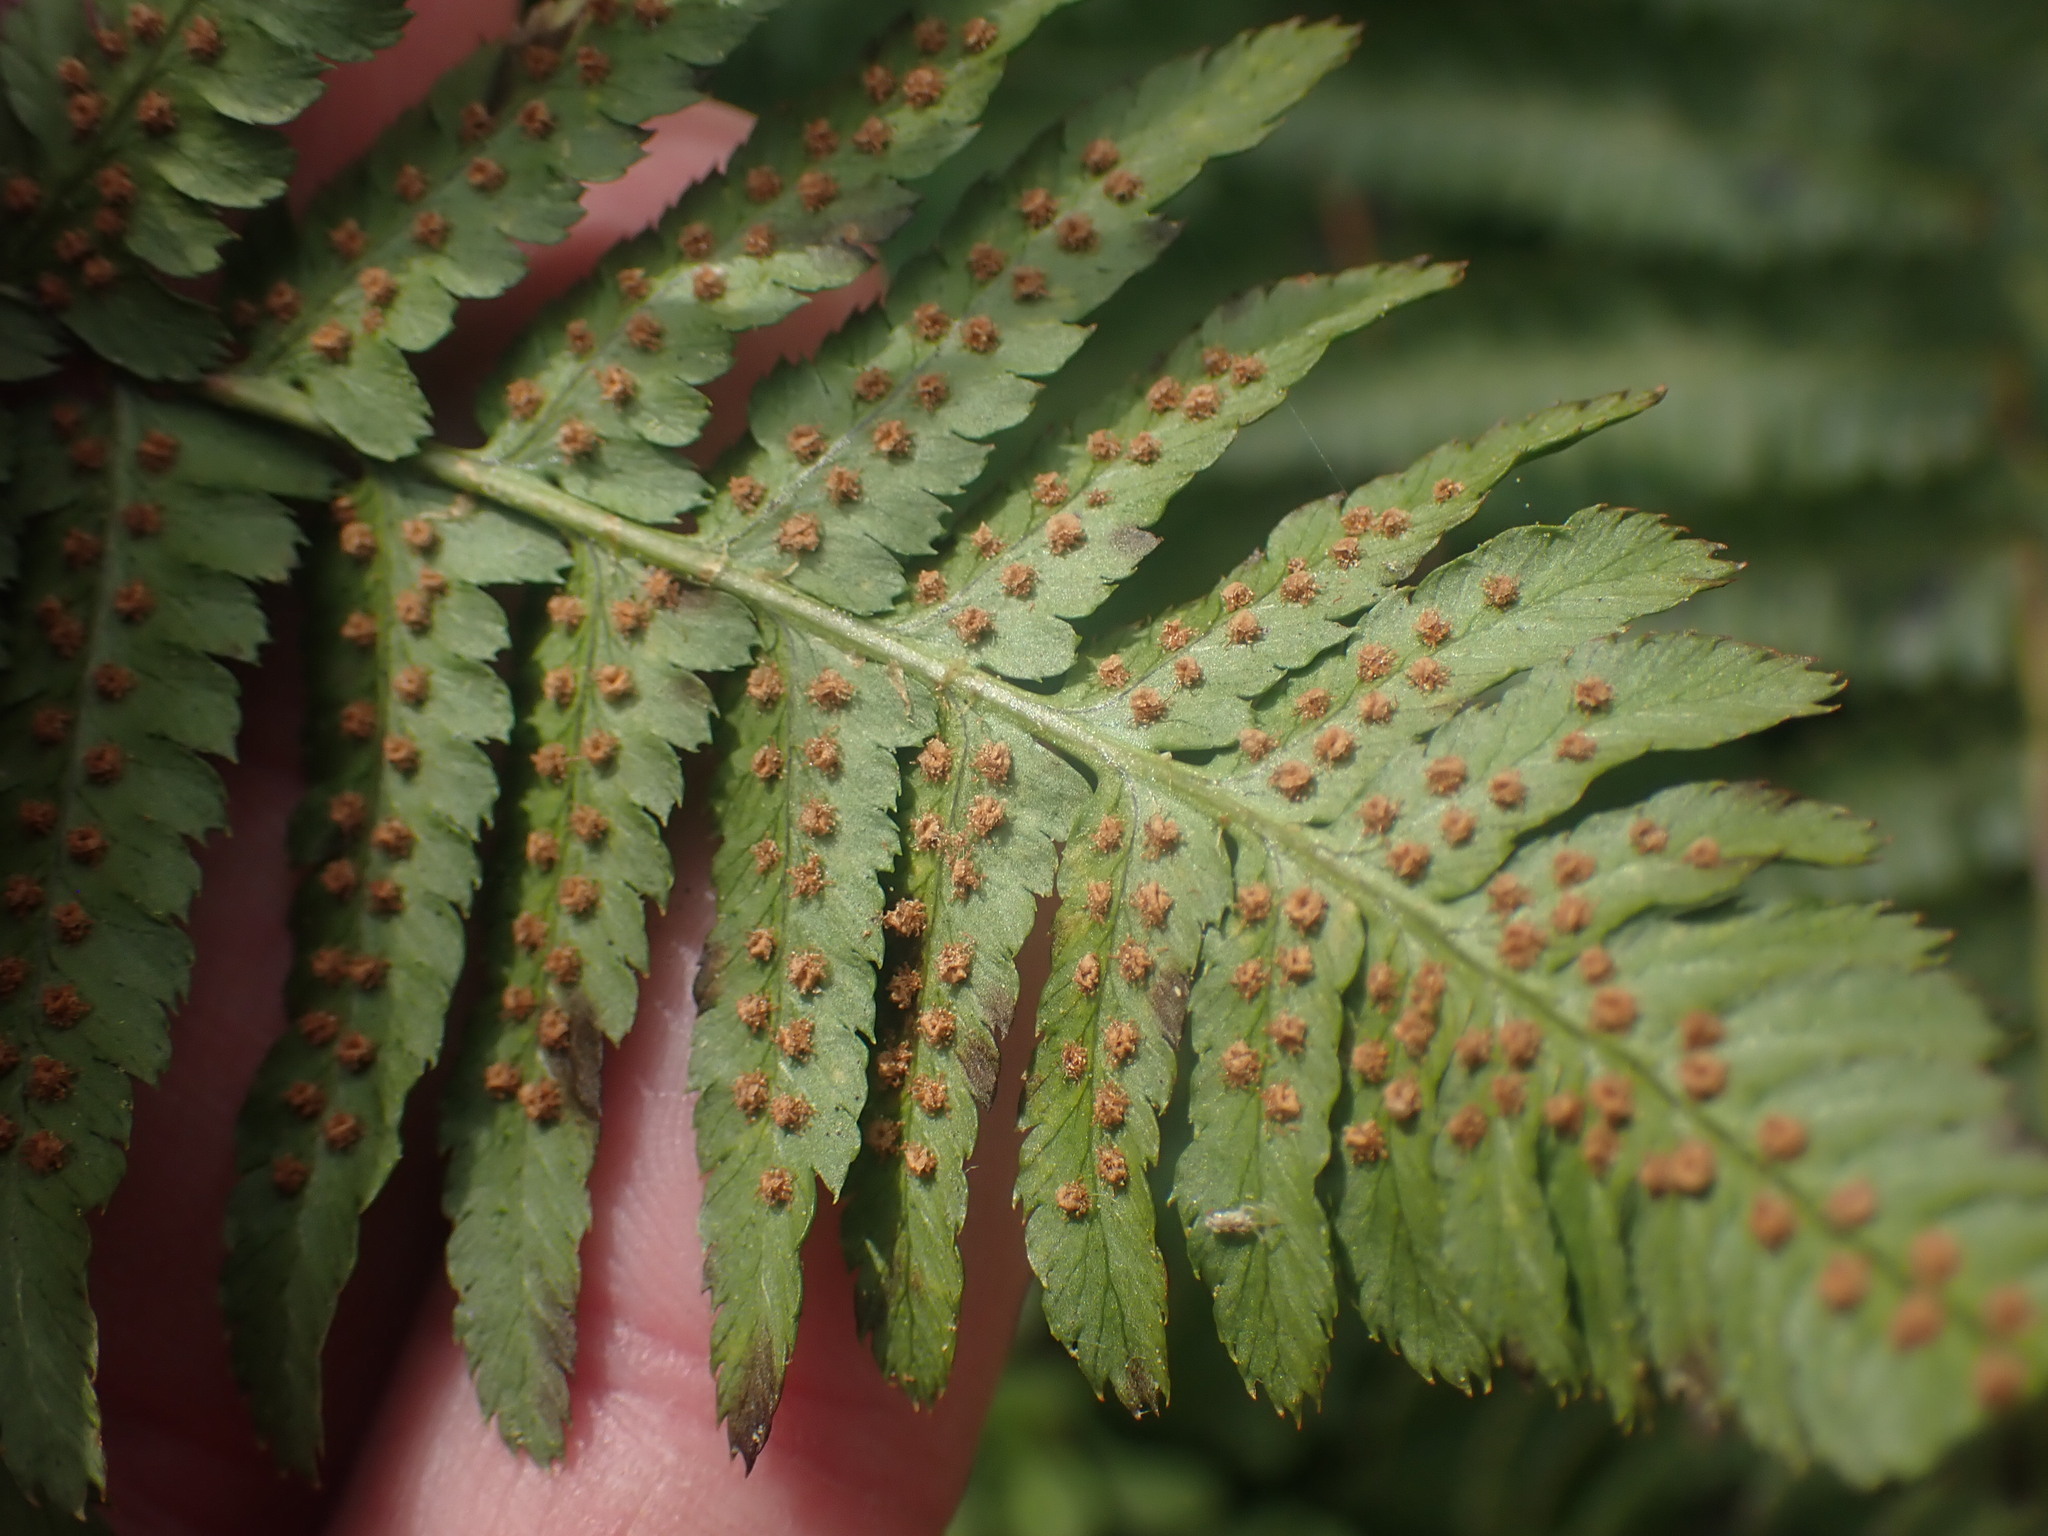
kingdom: Plantae
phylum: Tracheophyta
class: Polypodiopsida
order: Polypodiales
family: Dryopteridaceae
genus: Dryopteris
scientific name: Dryopteris arguta
